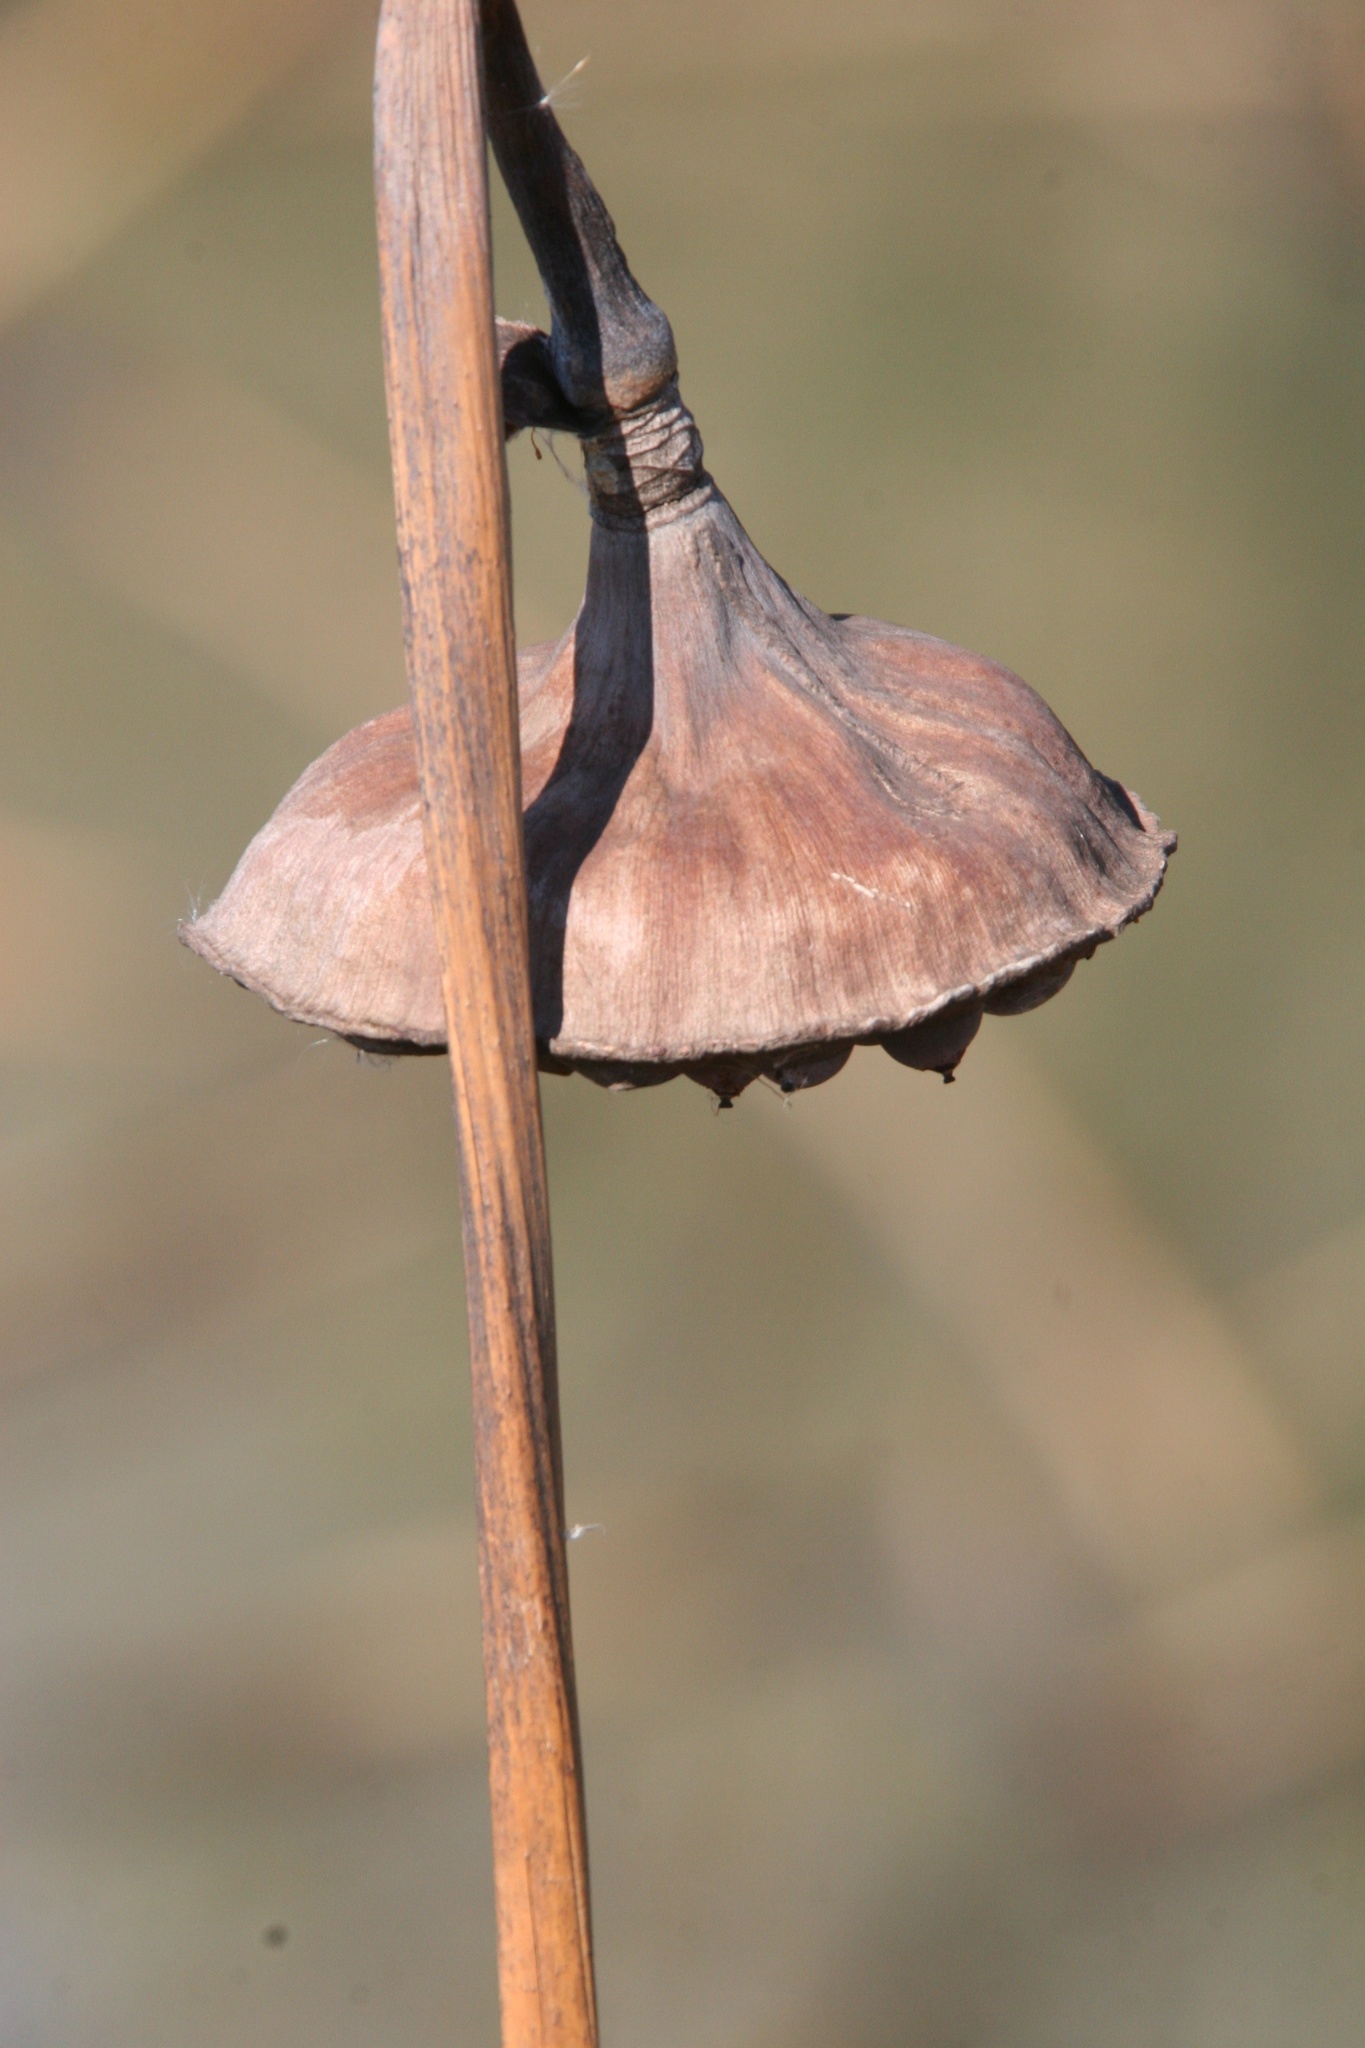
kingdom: Plantae
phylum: Tracheophyta
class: Magnoliopsida
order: Proteales
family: Nelumbonaceae
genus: Nelumbo
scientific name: Nelumbo lutea
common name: American lotus
